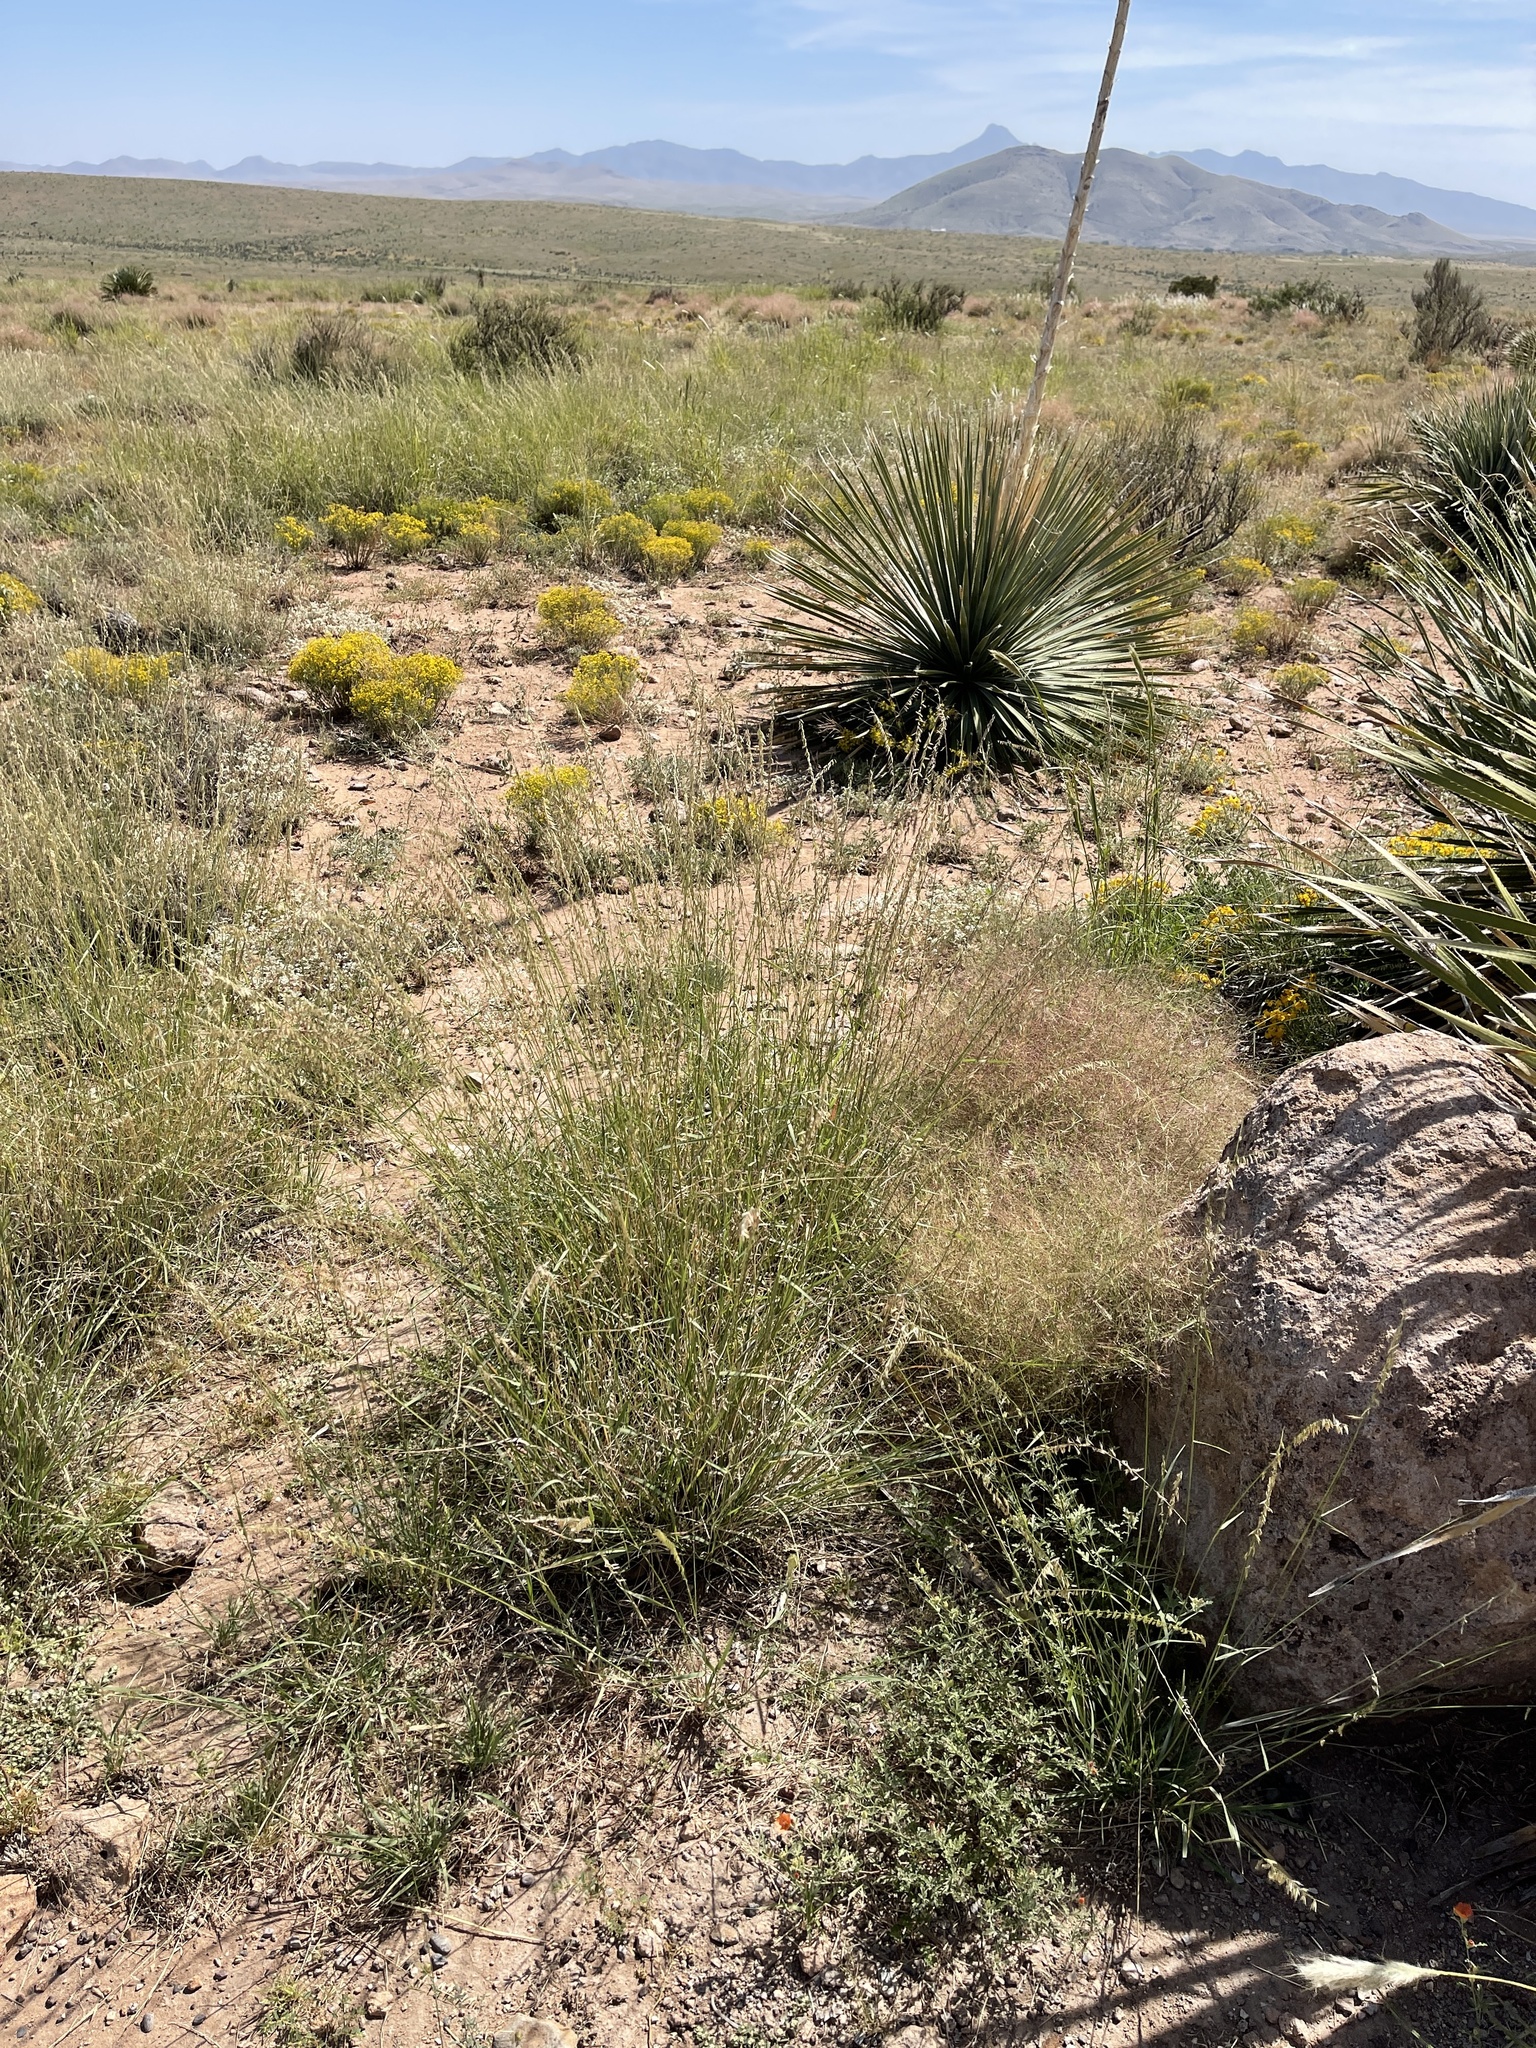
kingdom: Plantae
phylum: Tracheophyta
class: Liliopsida
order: Poales
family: Poaceae
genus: Bouteloua
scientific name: Bouteloua curtipendula
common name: Side-oats grama
